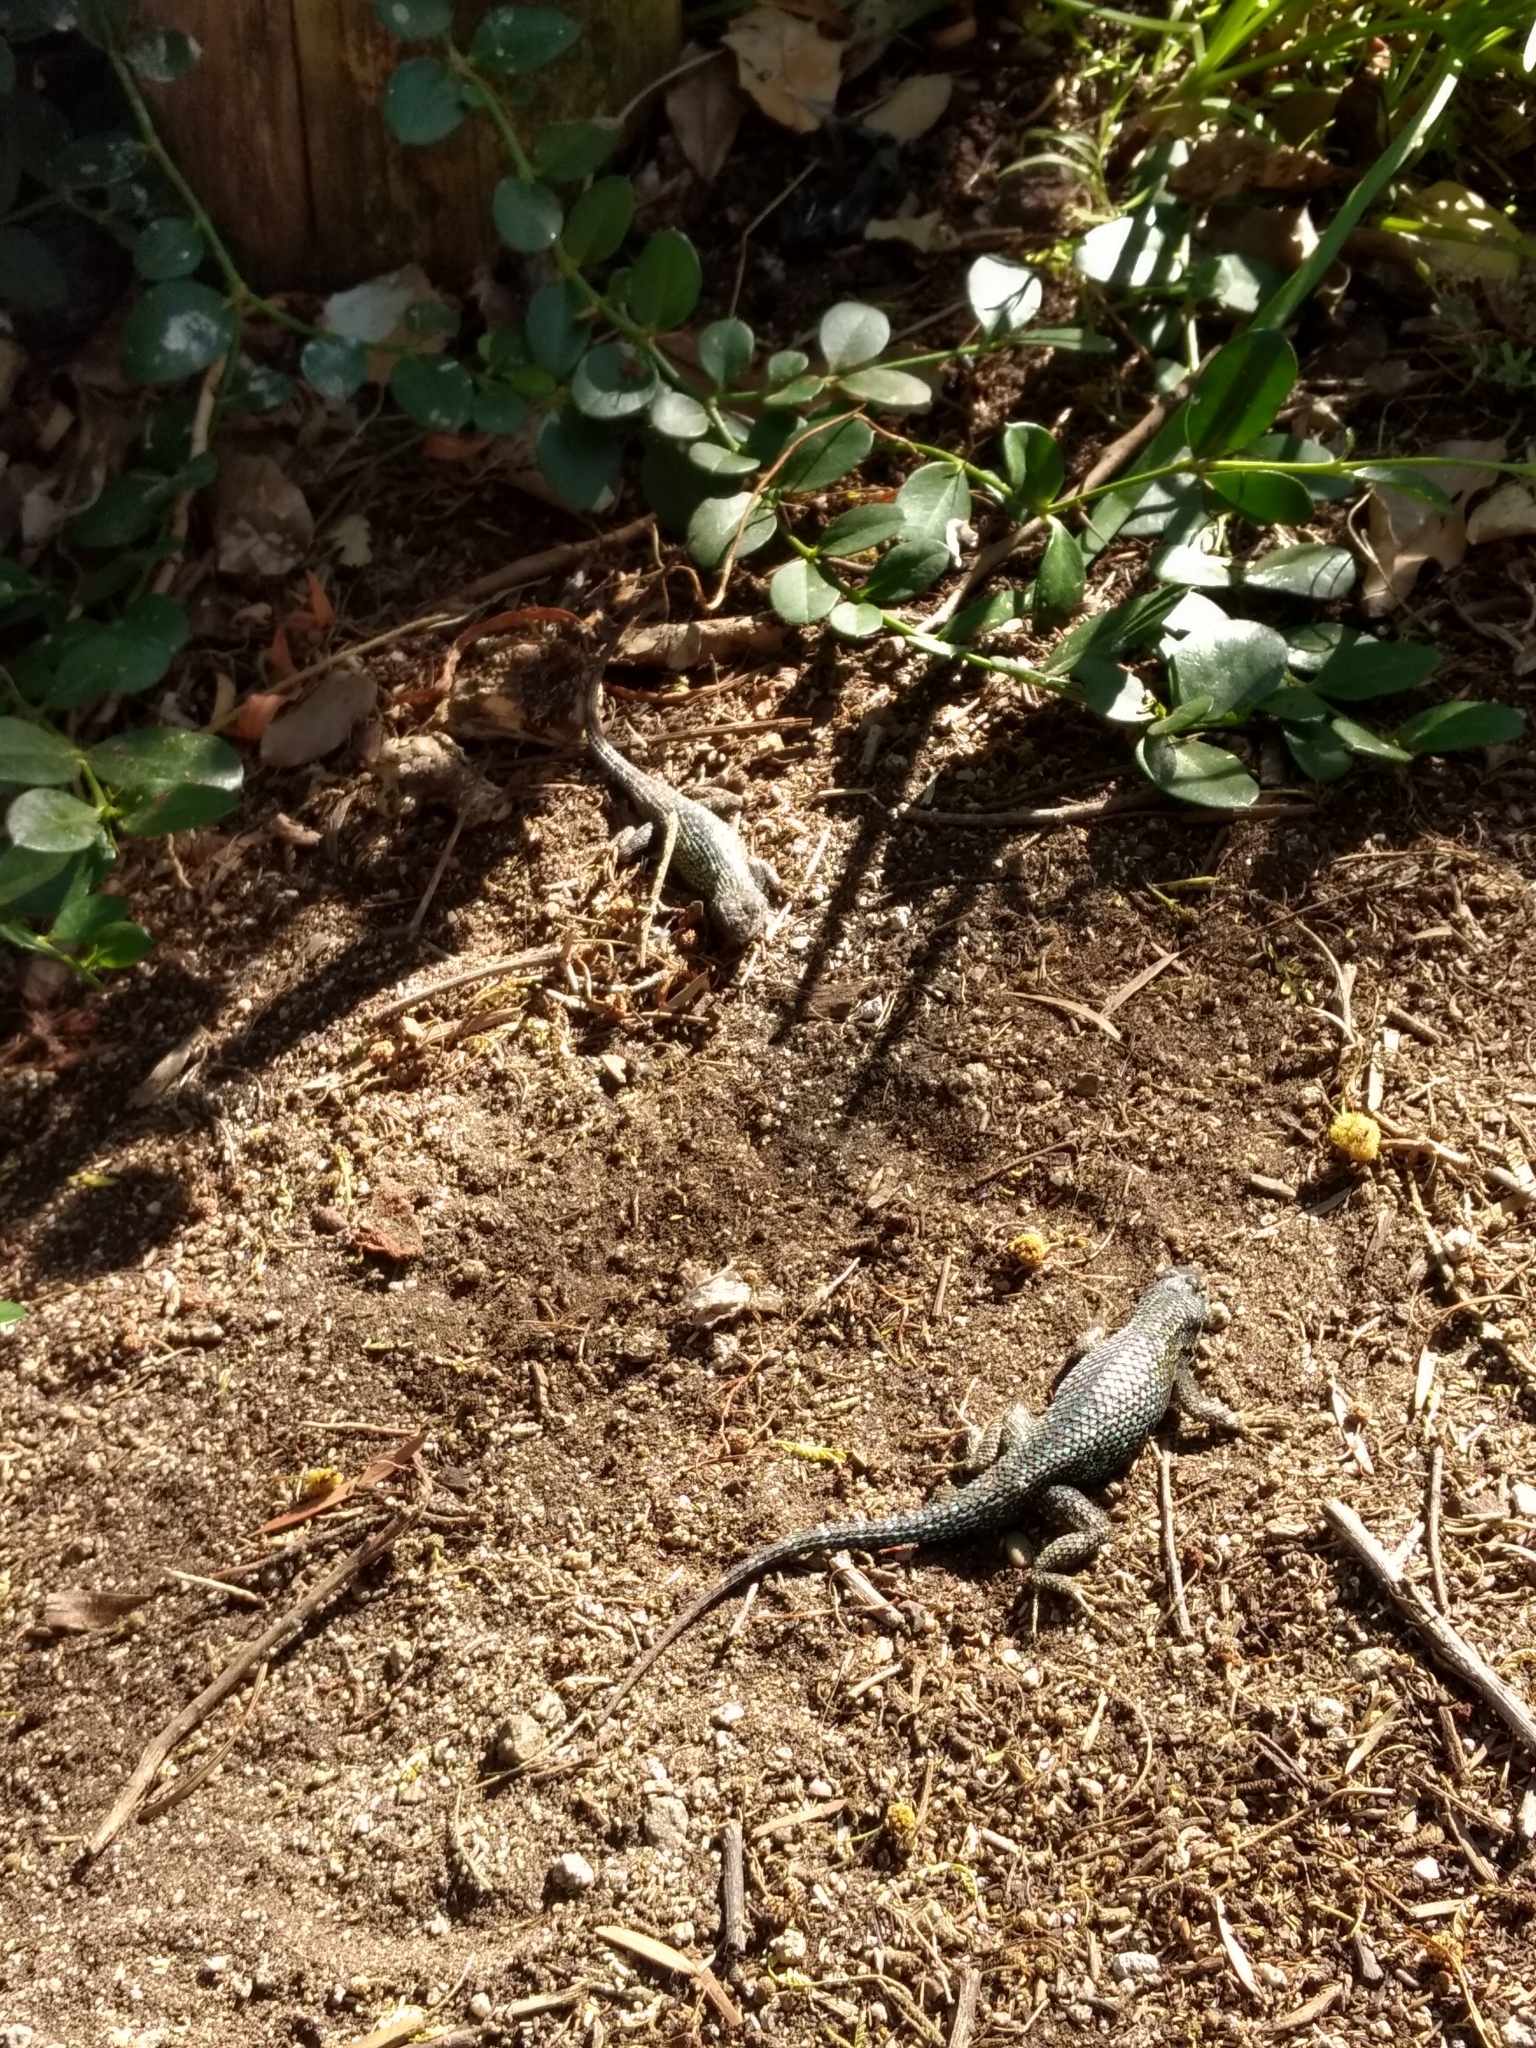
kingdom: Animalia
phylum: Chordata
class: Squamata
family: Phrynosomatidae
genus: Sceloporus
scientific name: Sceloporus occidentalis
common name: Western fence lizard
